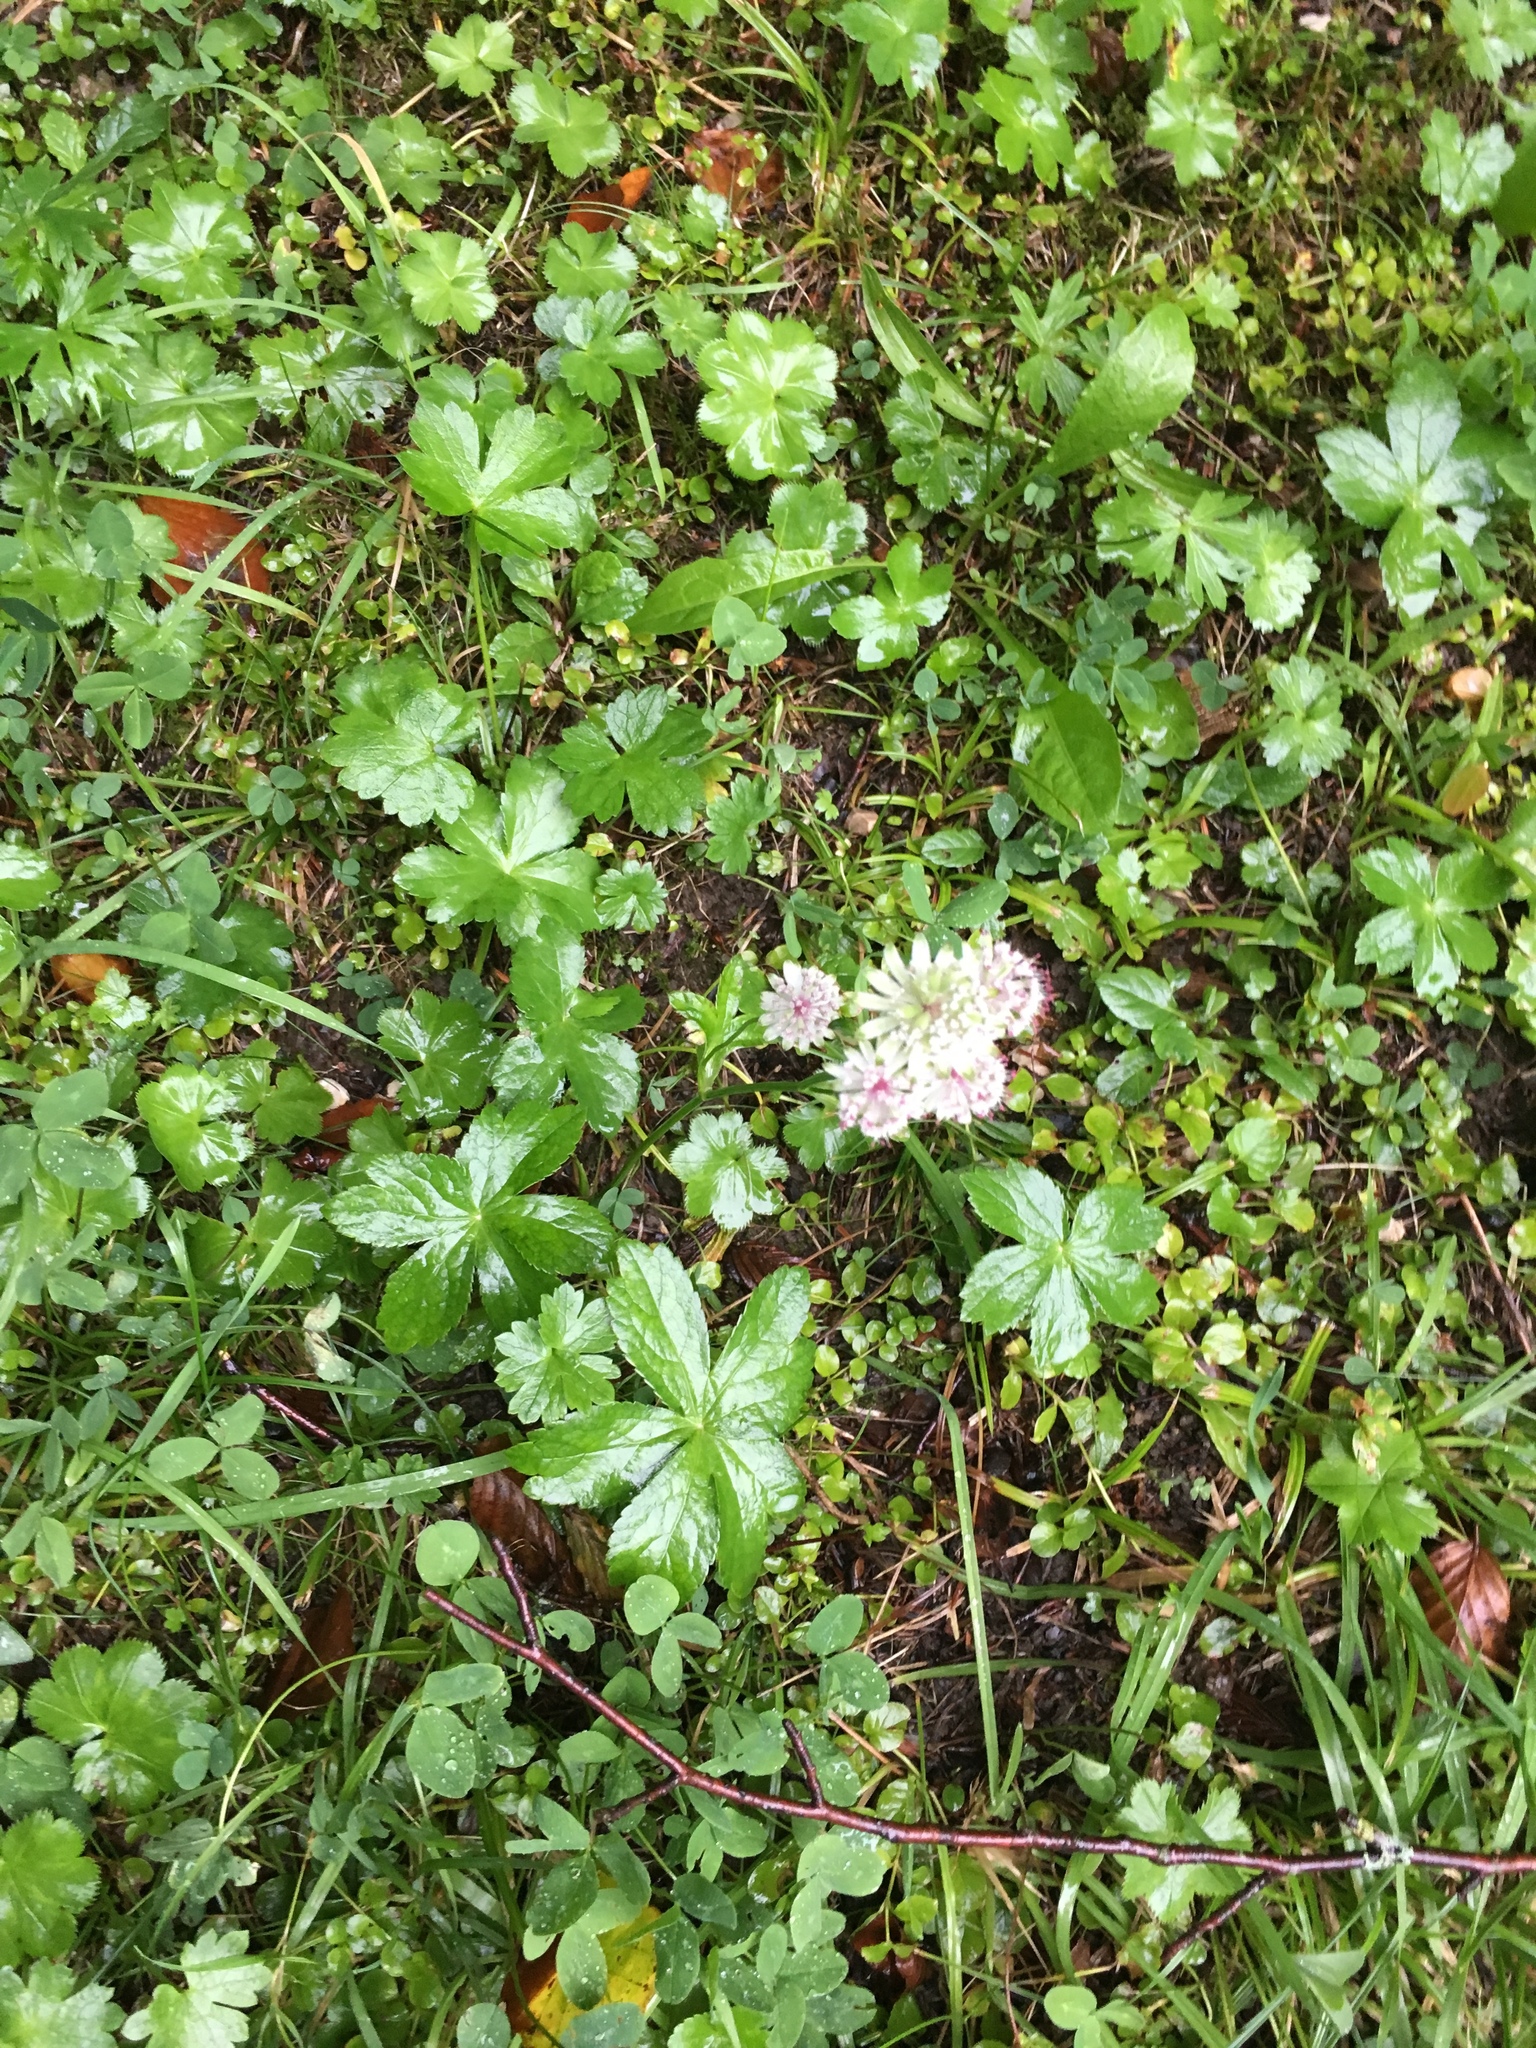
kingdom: Plantae
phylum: Tracheophyta
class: Magnoliopsida
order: Apiales
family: Apiaceae
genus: Astrantia
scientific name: Astrantia major
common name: Greater masterwort
